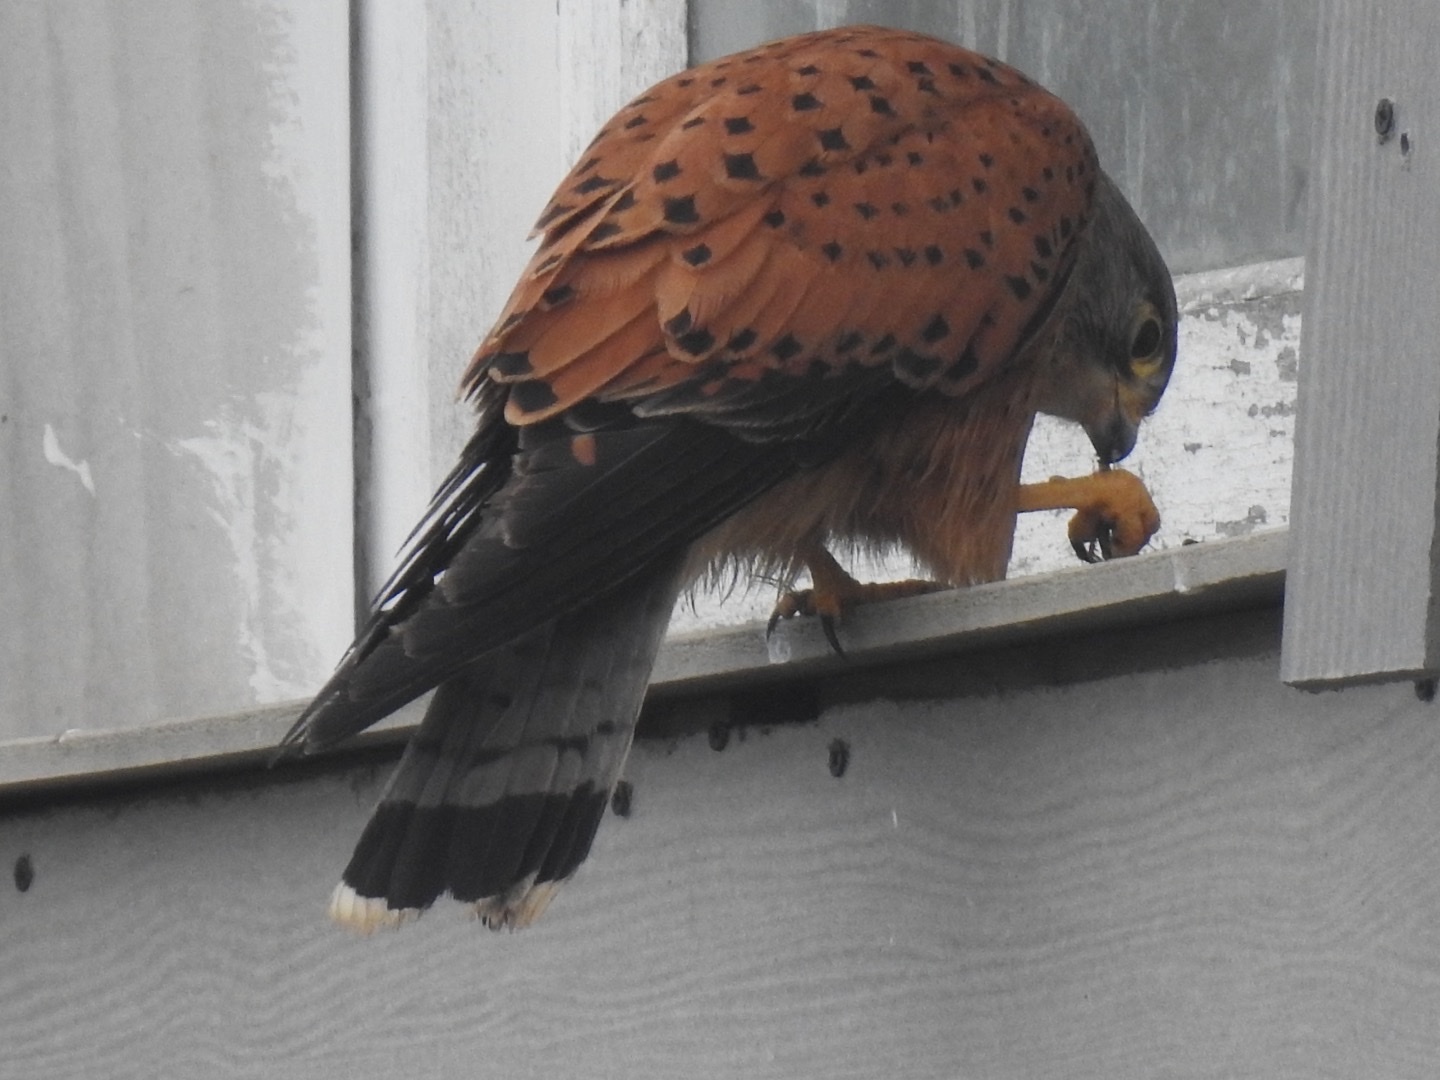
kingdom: Animalia
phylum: Chordata
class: Aves
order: Falconiformes
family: Falconidae
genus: Falco
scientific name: Falco rupicolus
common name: Rock kestrel
